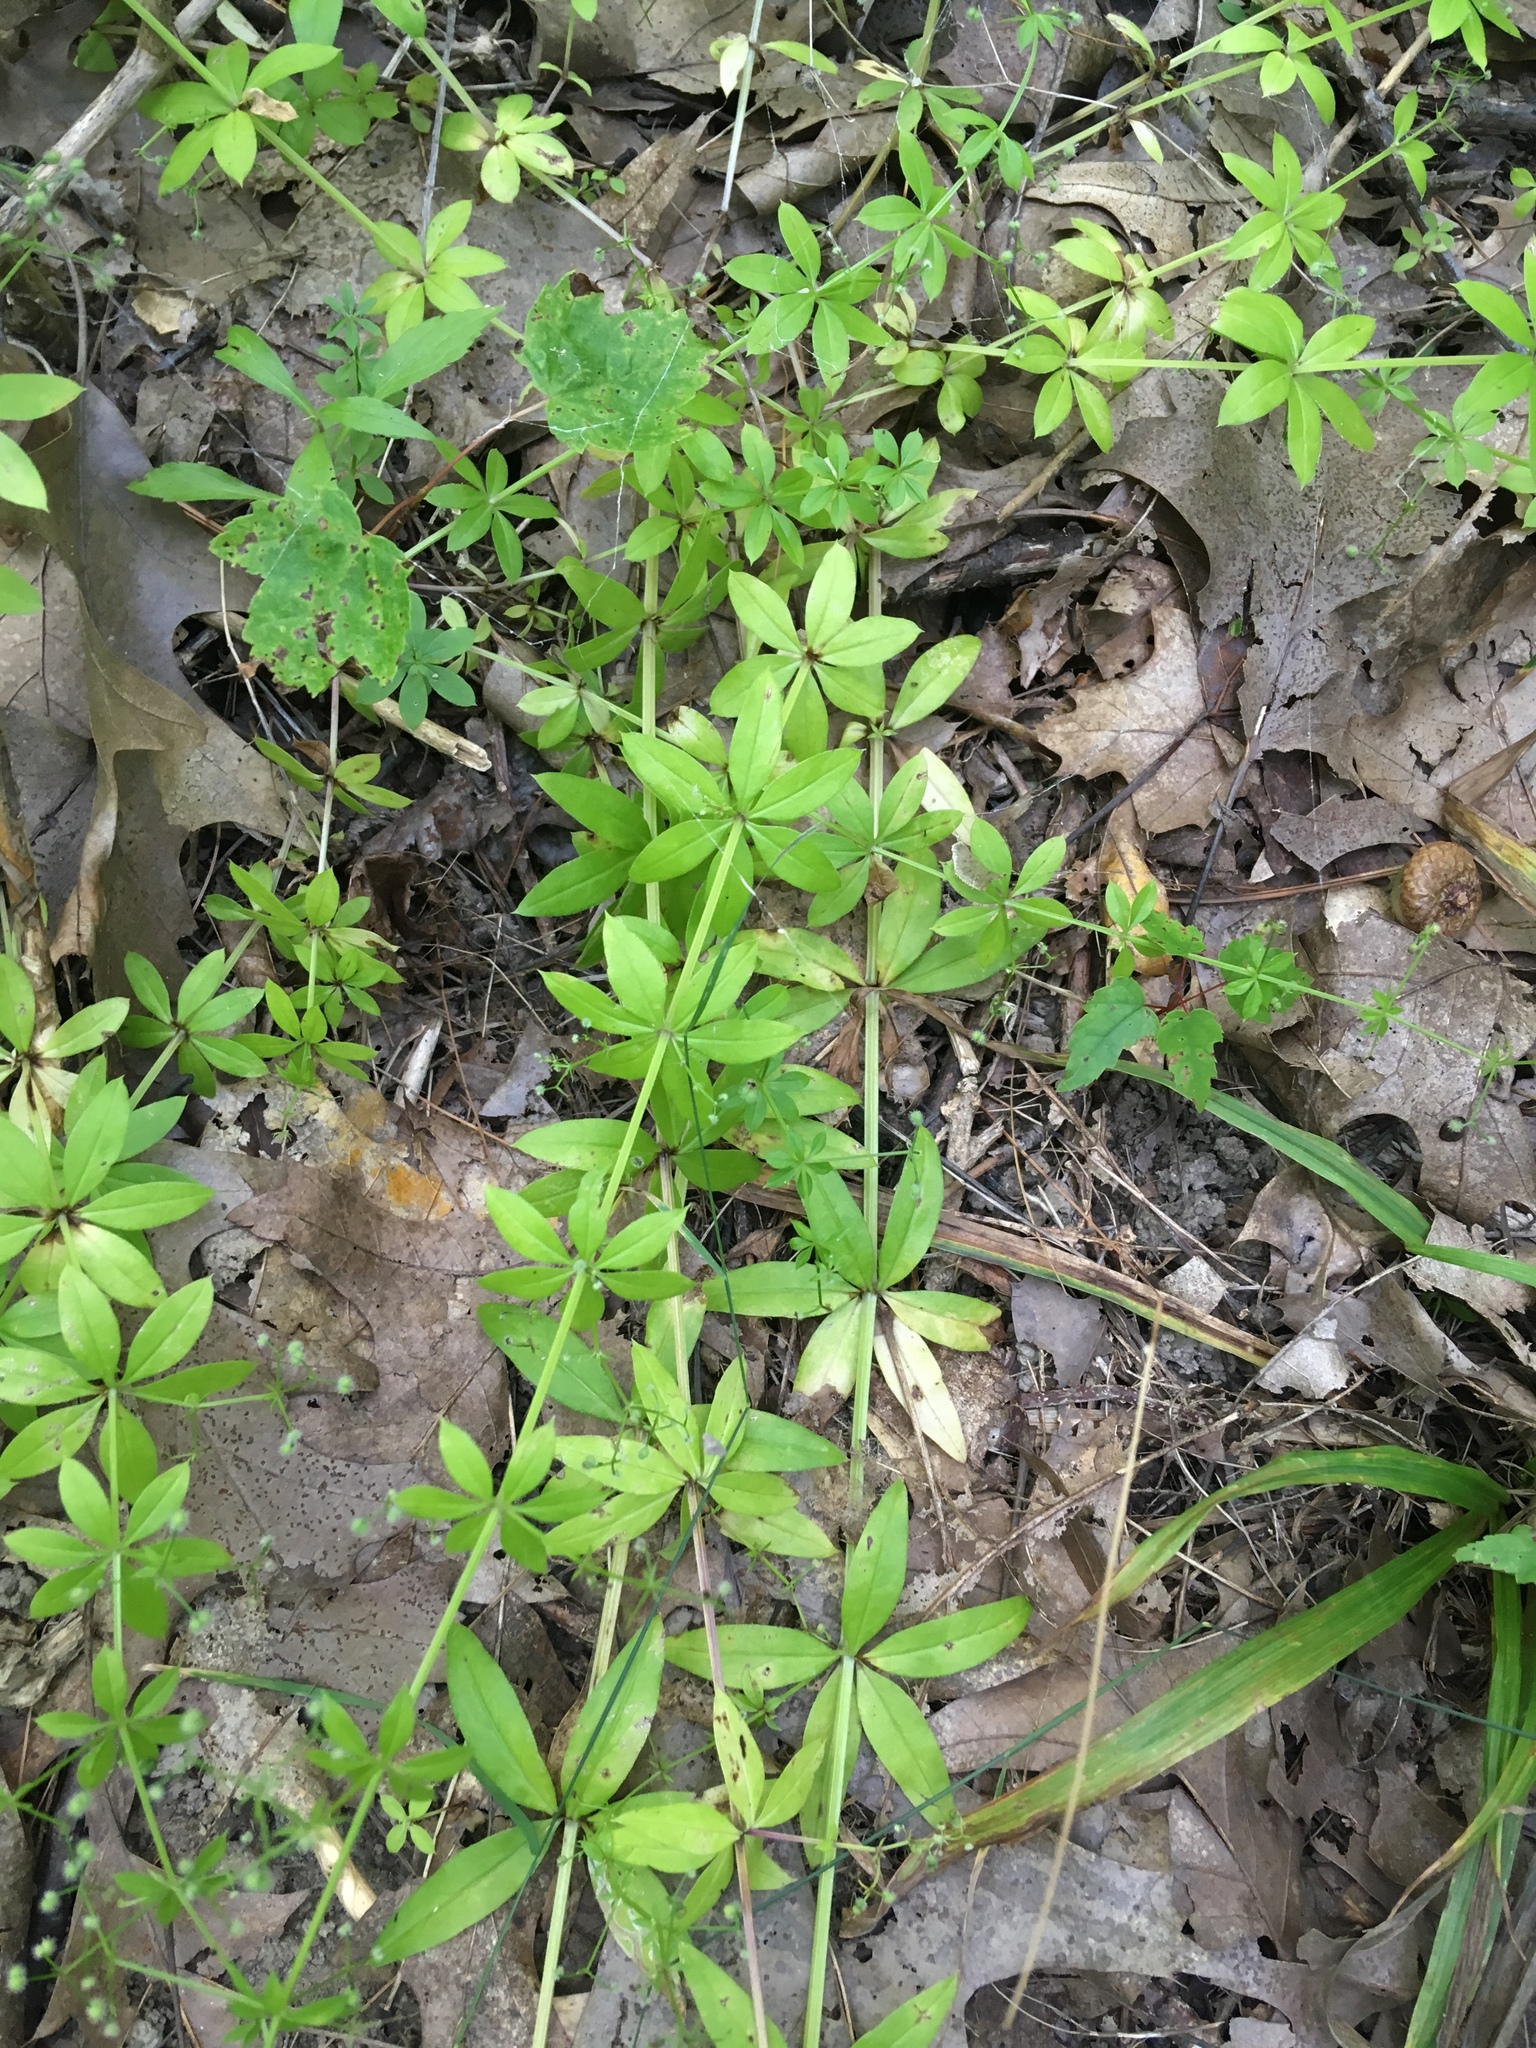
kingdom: Plantae
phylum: Tracheophyta
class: Magnoliopsida
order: Gentianales
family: Rubiaceae
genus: Galium
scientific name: Galium triflorum
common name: Fragrant bedstraw
